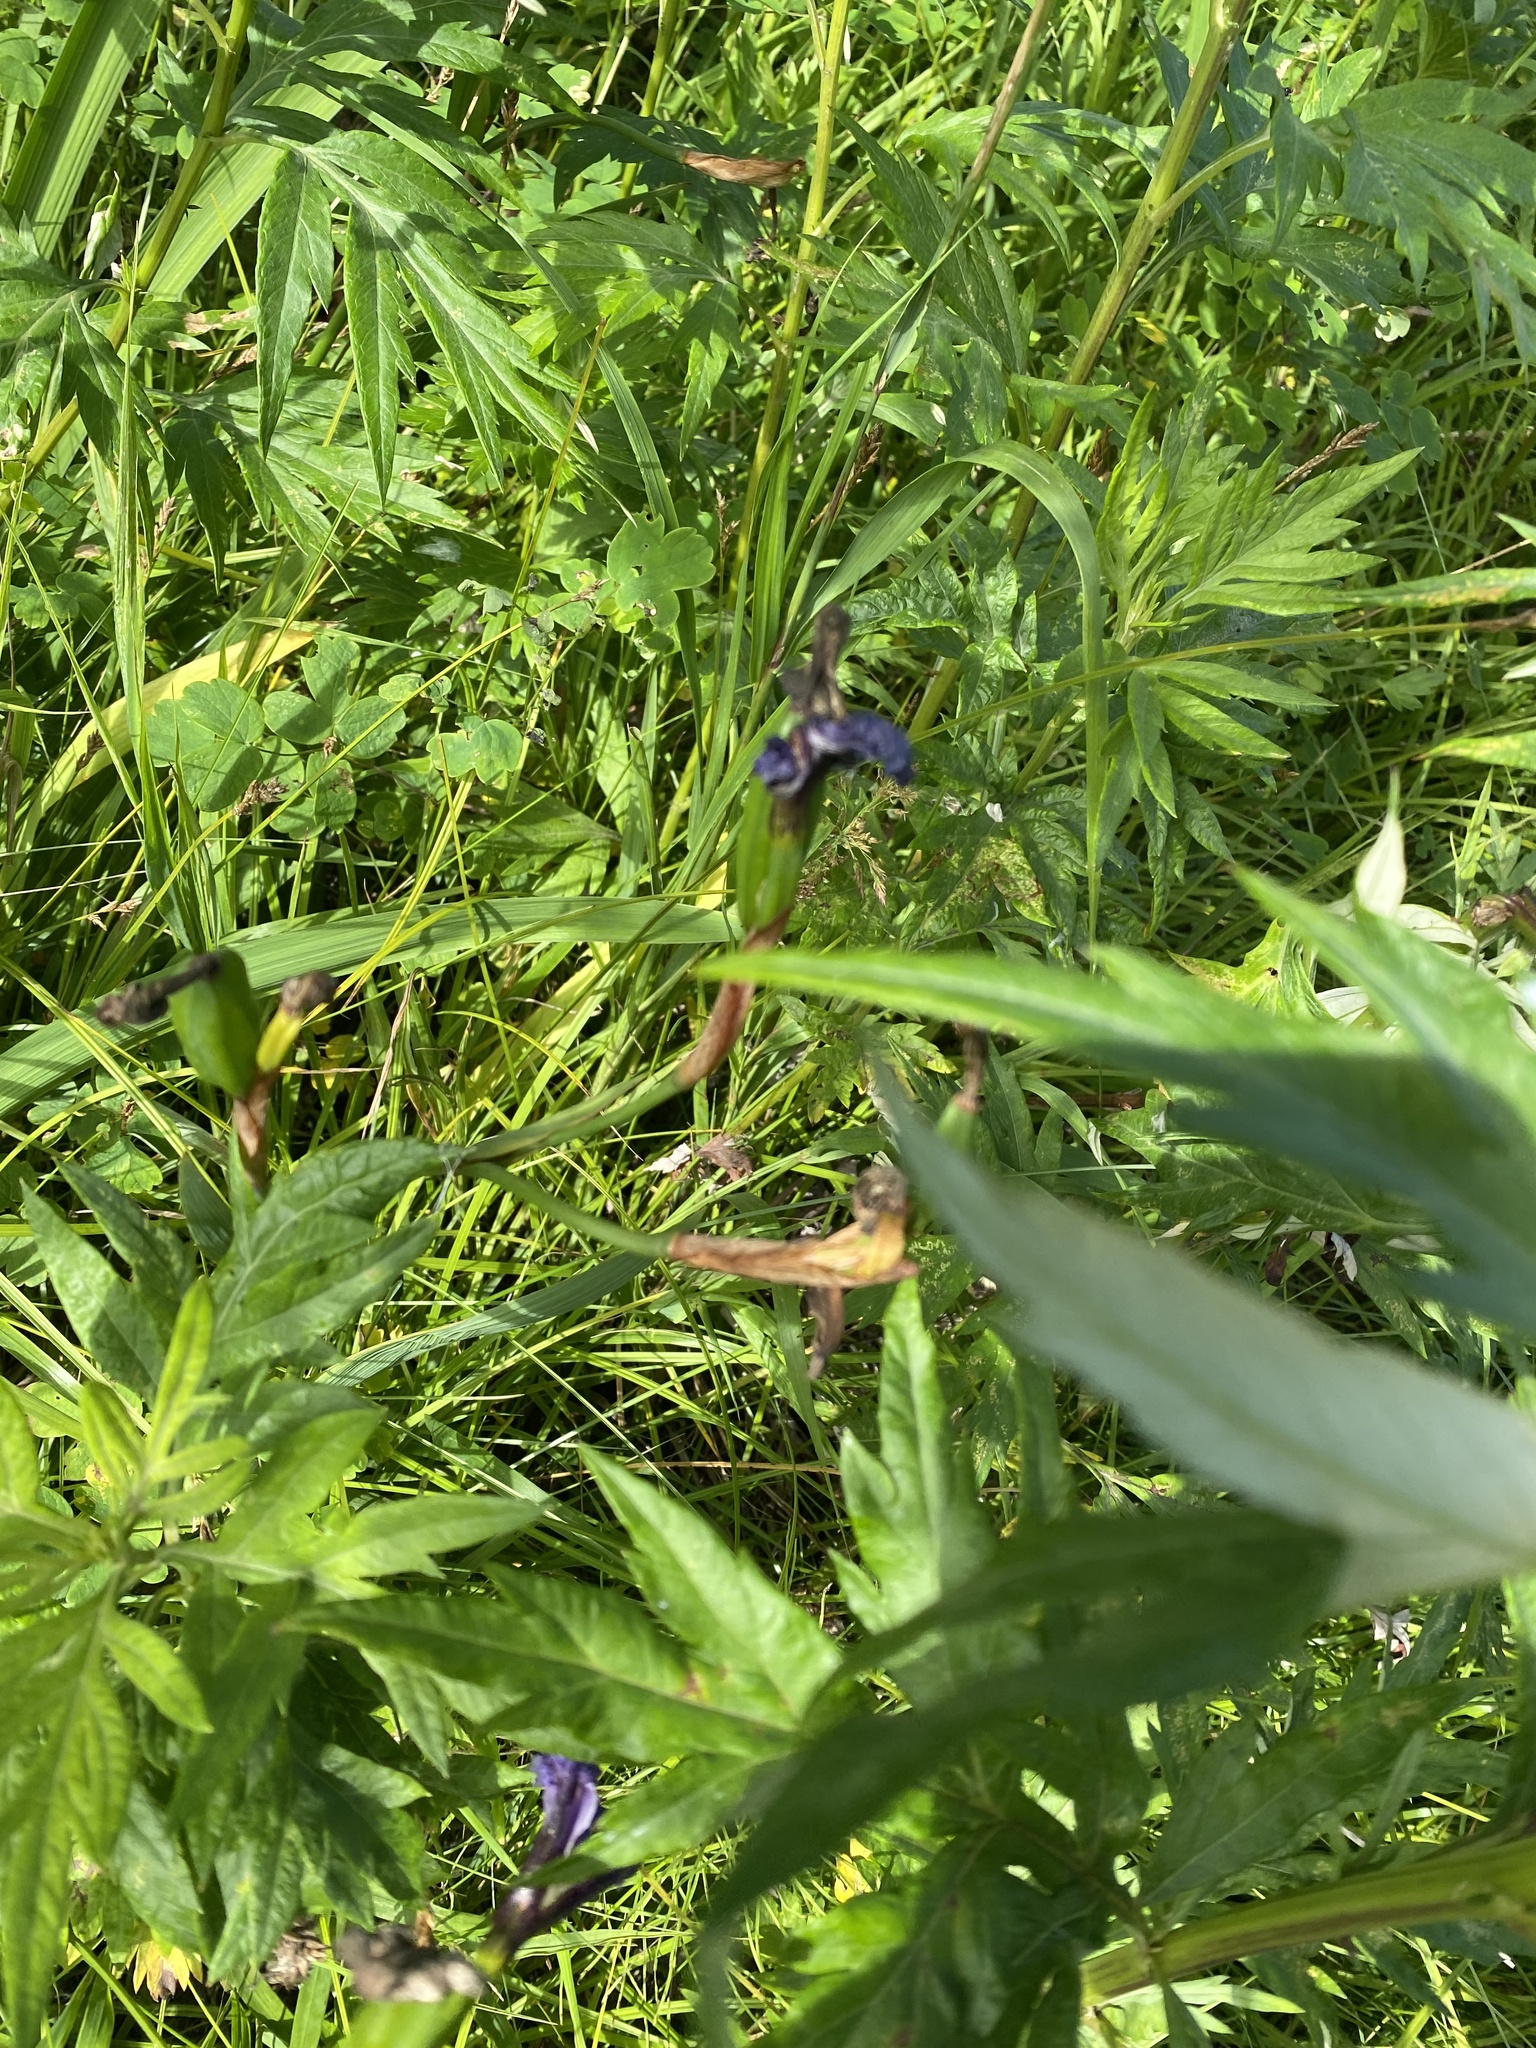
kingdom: Plantae
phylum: Tracheophyta
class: Liliopsida
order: Asparagales
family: Iridaceae
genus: Iris
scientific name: Iris setosa
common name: Arctic blue flag
